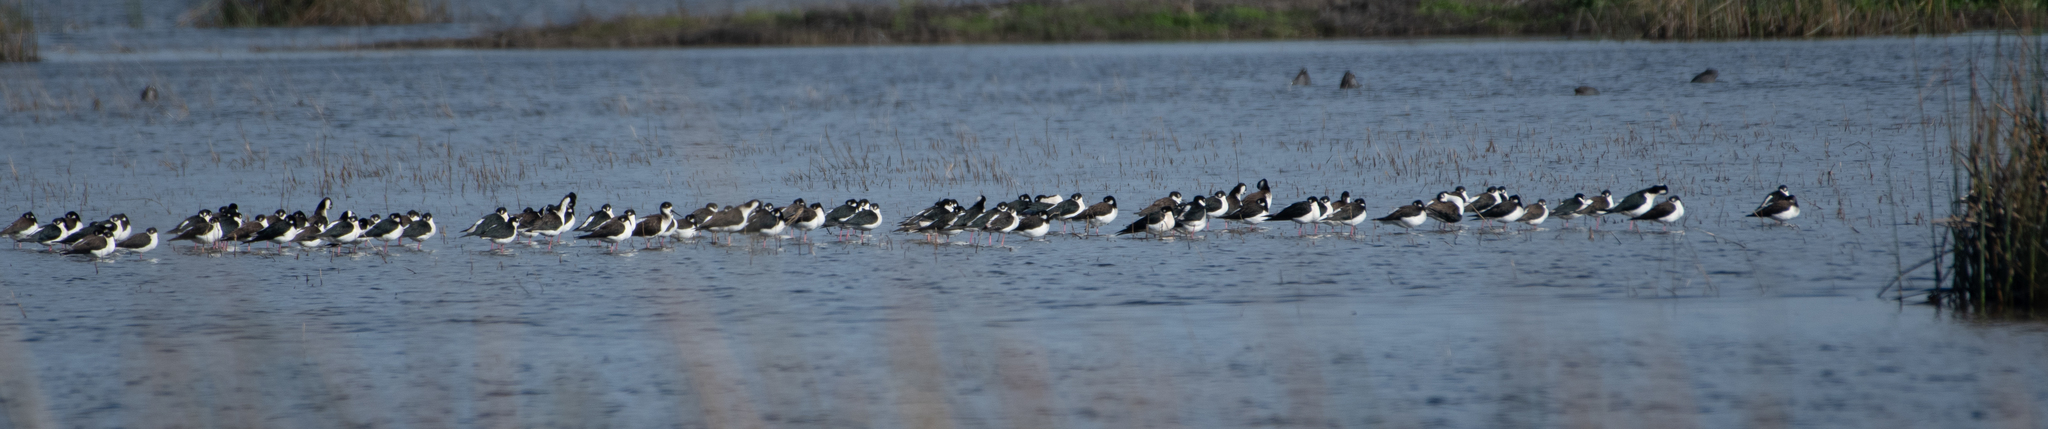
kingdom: Animalia
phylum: Chordata
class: Aves
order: Charadriiformes
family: Recurvirostridae
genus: Himantopus
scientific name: Himantopus mexicanus
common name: Black-necked stilt
